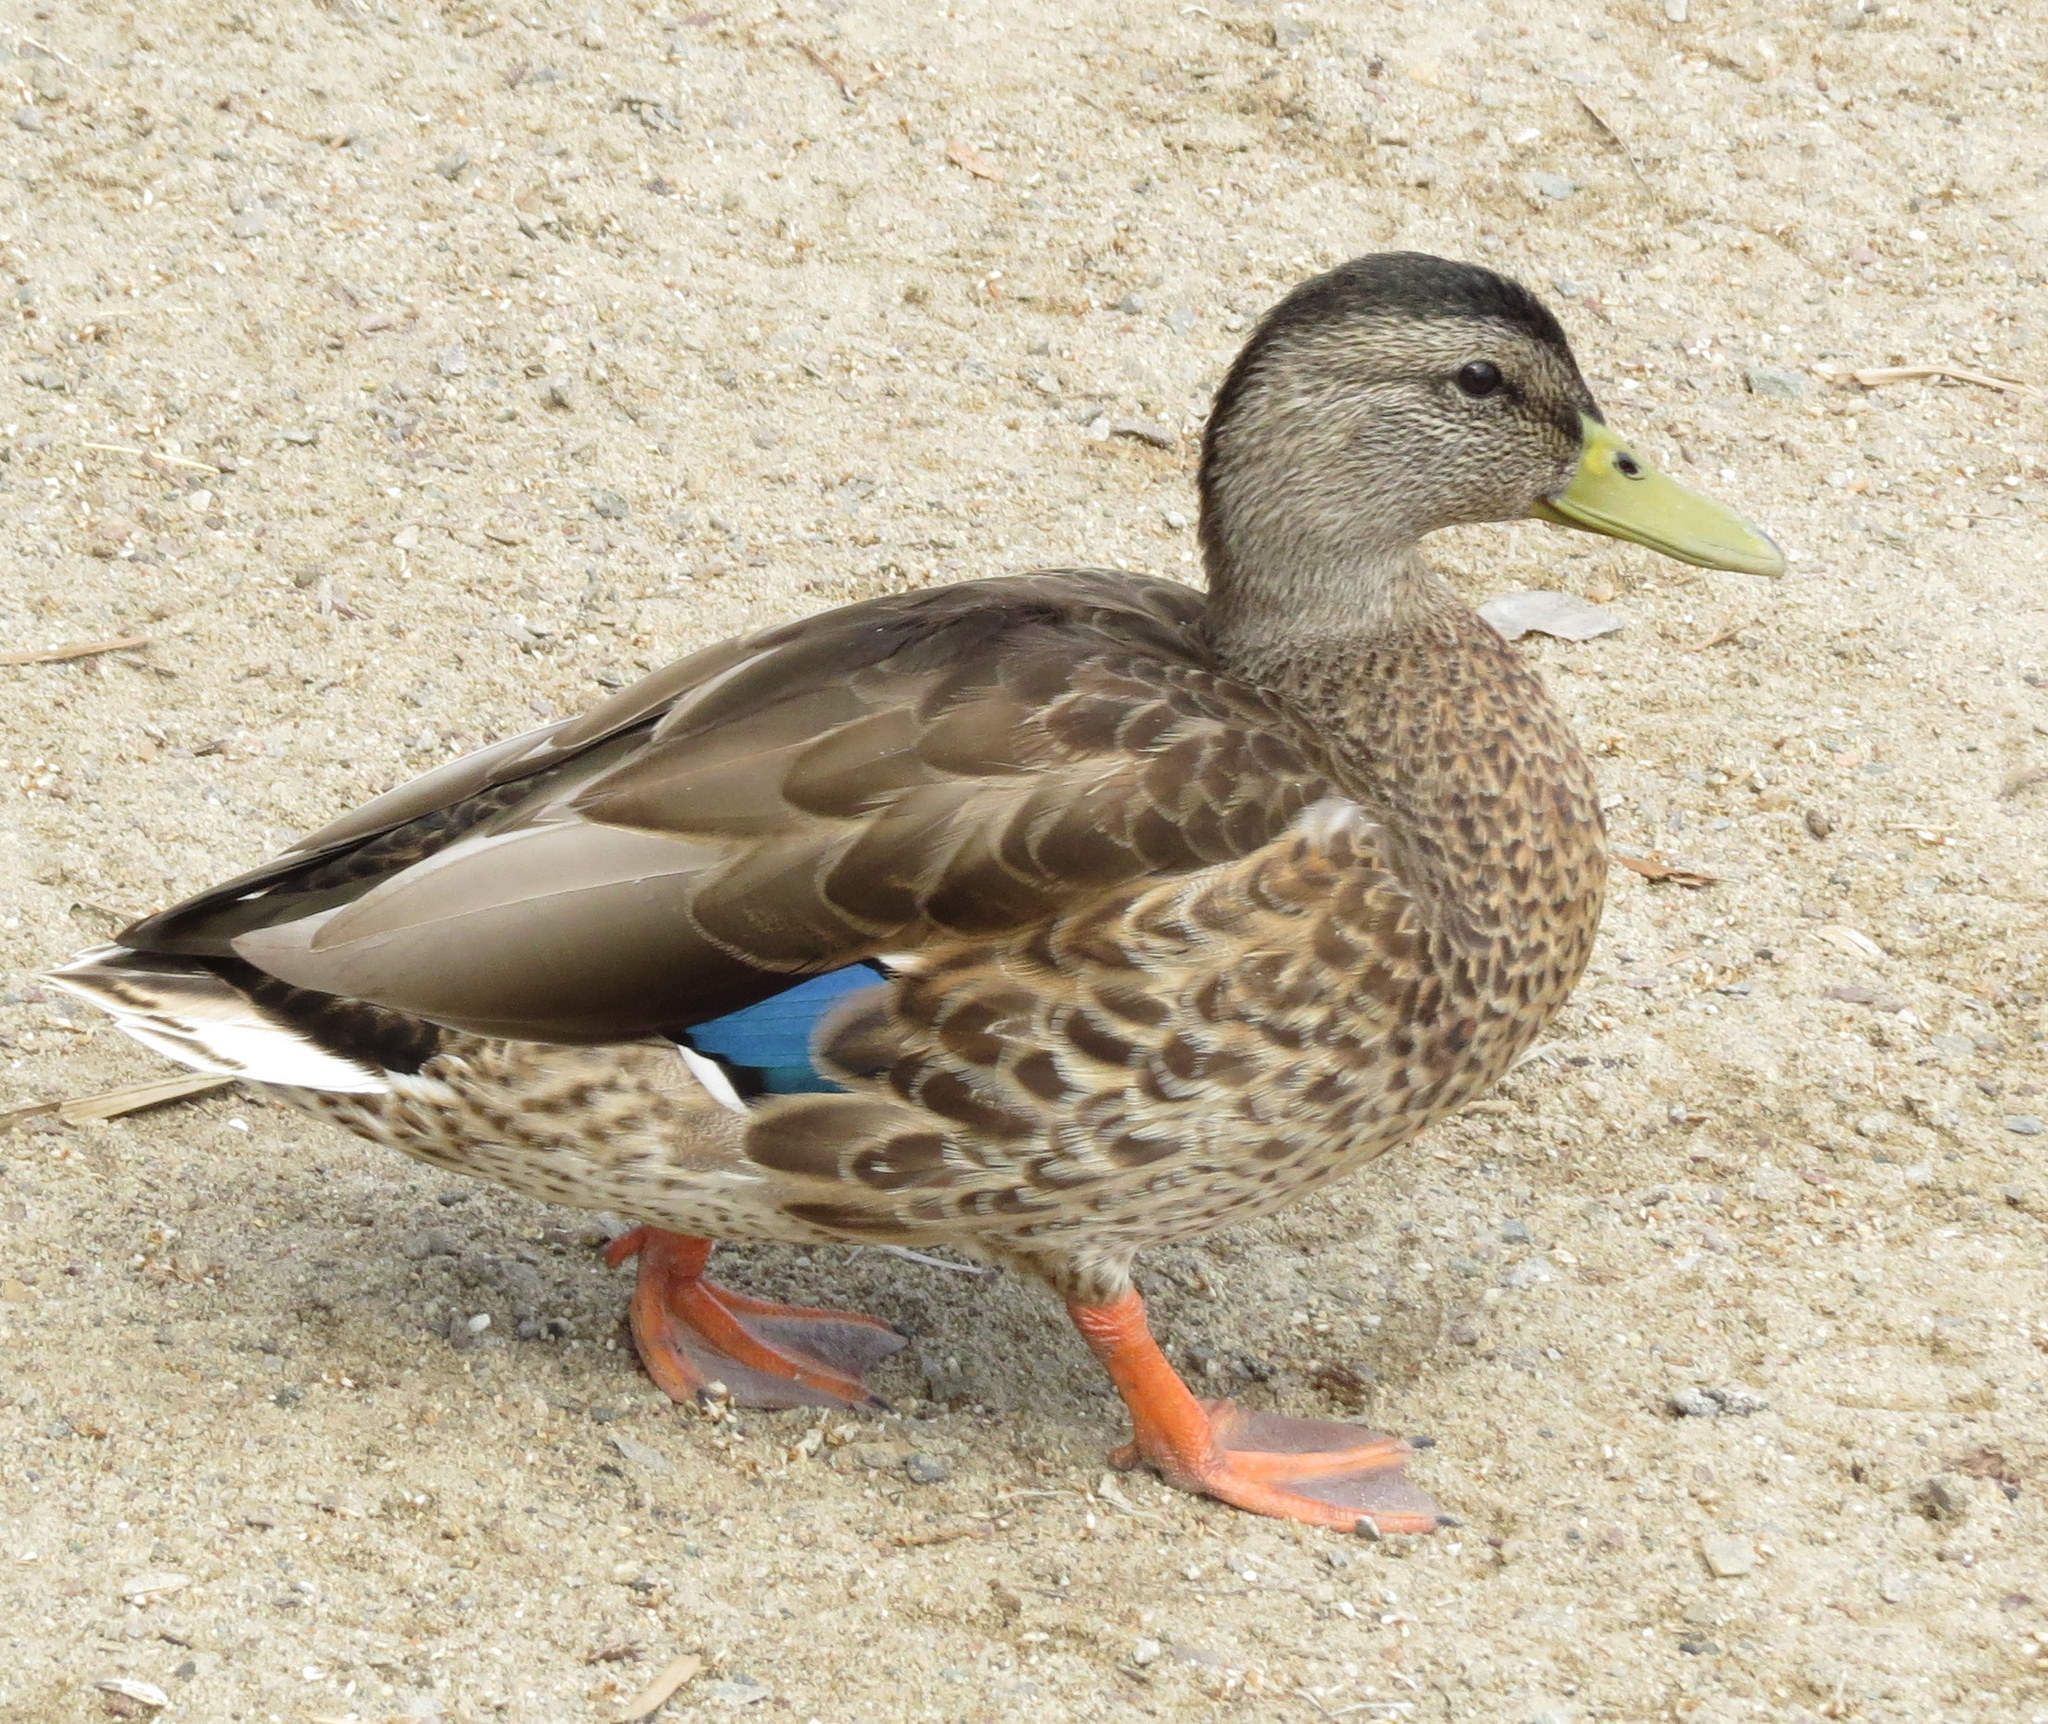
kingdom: Animalia
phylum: Chordata
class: Aves
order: Anseriformes
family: Anatidae
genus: Anas
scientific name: Anas platyrhynchos
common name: Mallard
